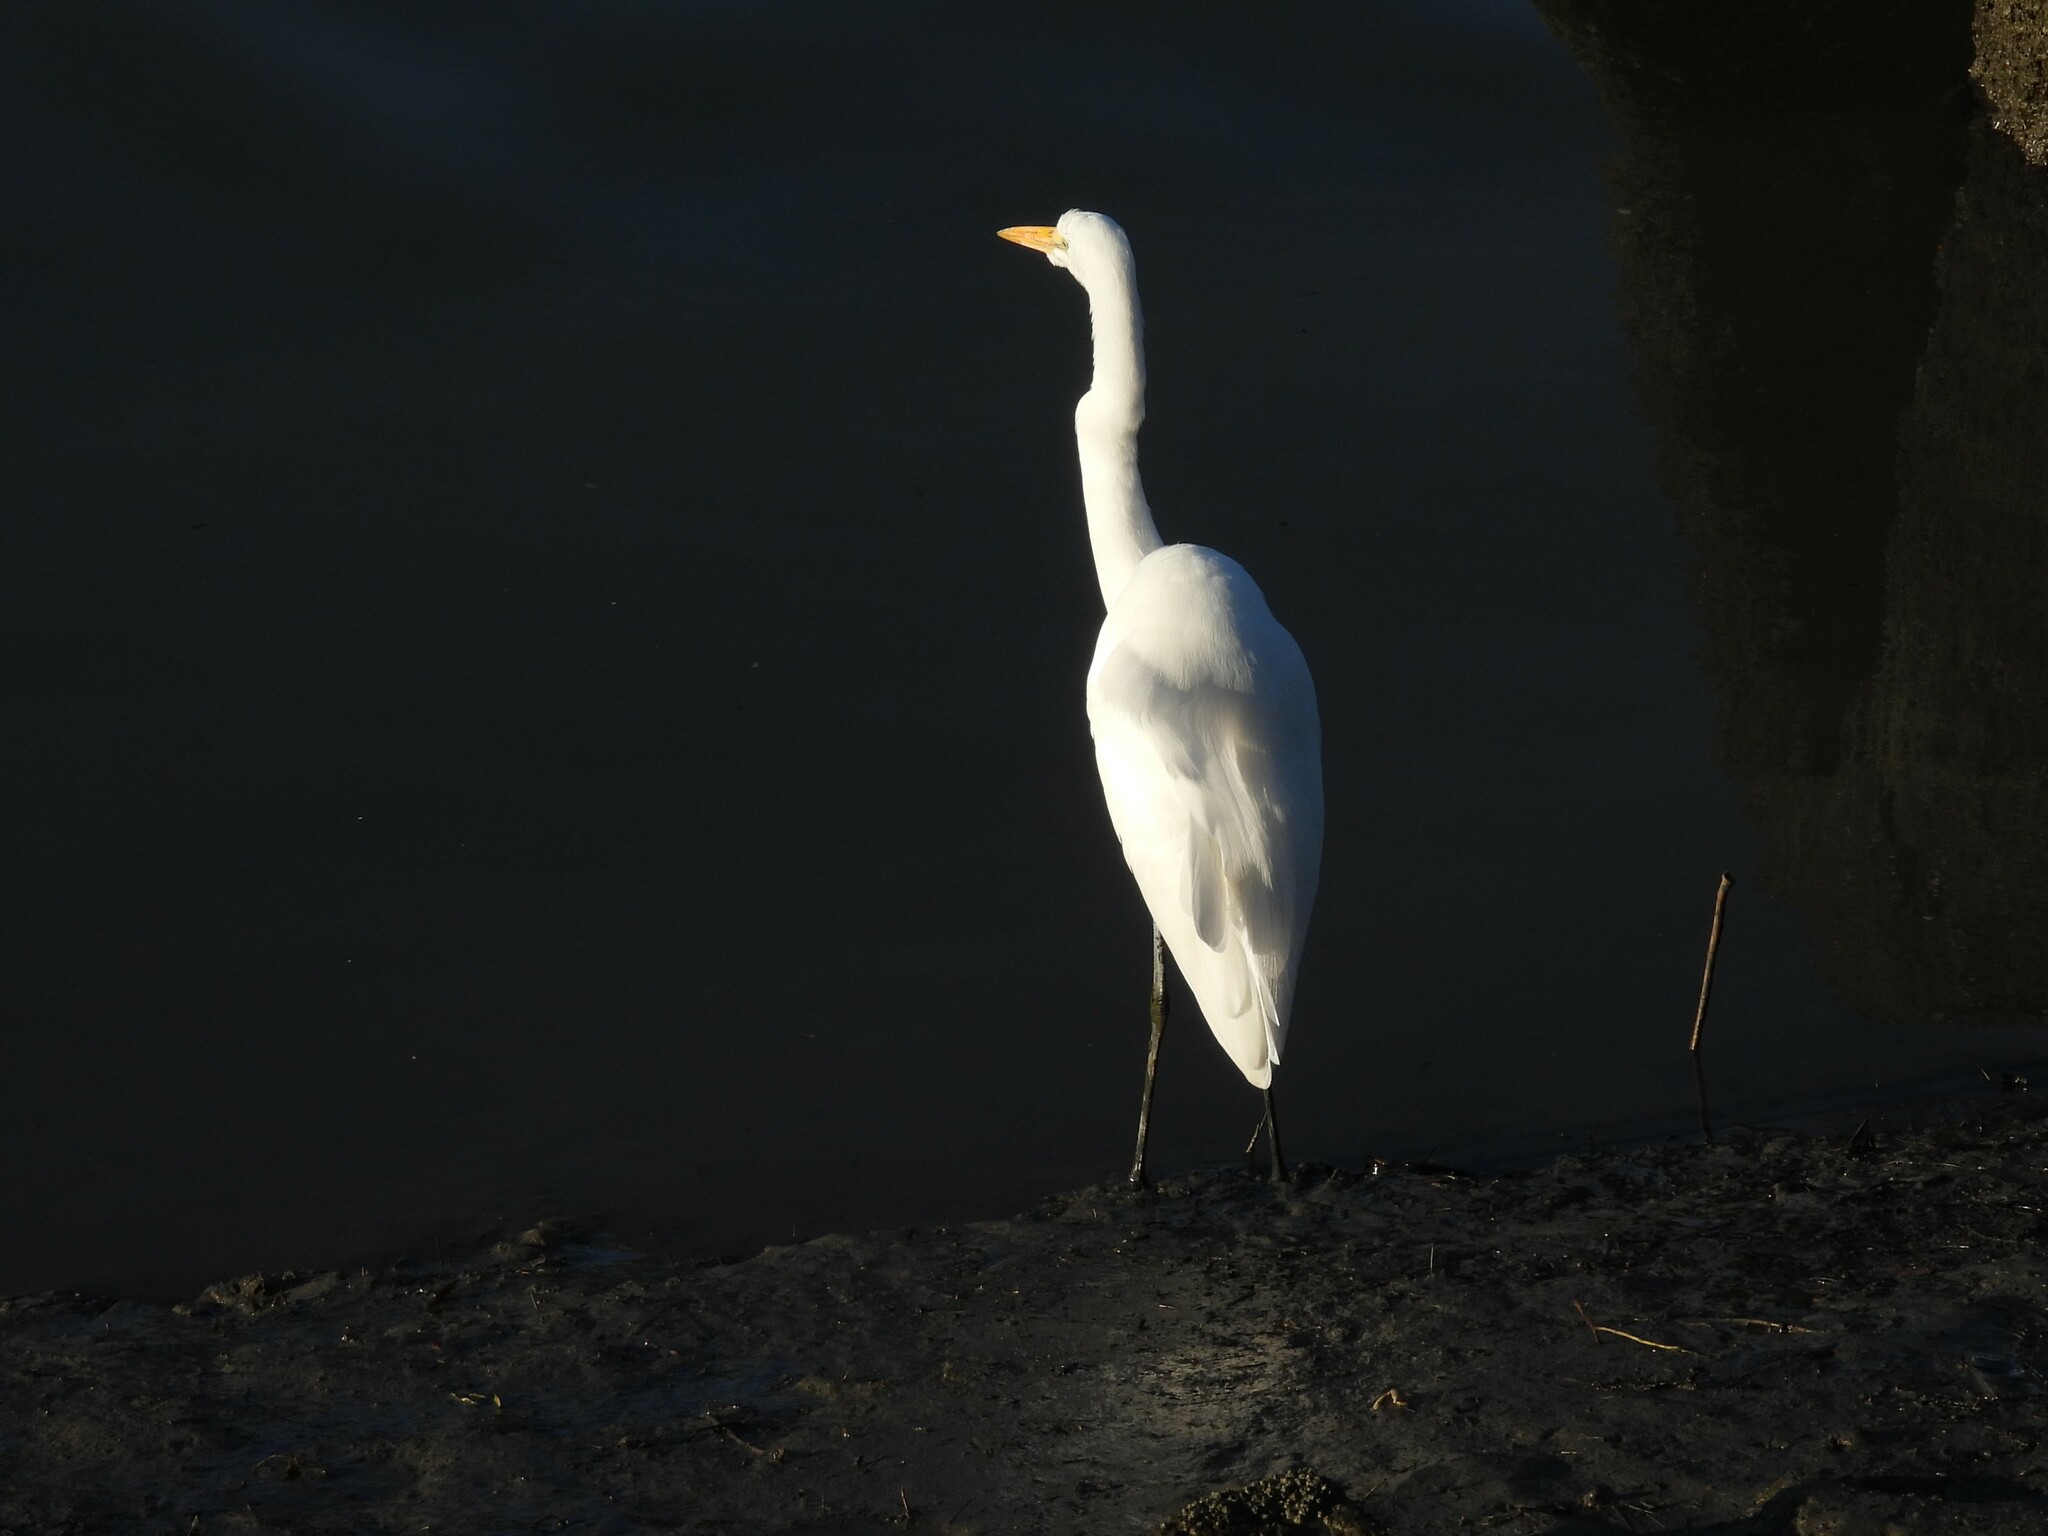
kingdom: Animalia
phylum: Chordata
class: Aves
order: Pelecaniformes
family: Ardeidae
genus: Ardea
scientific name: Ardea alba
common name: Great egret
